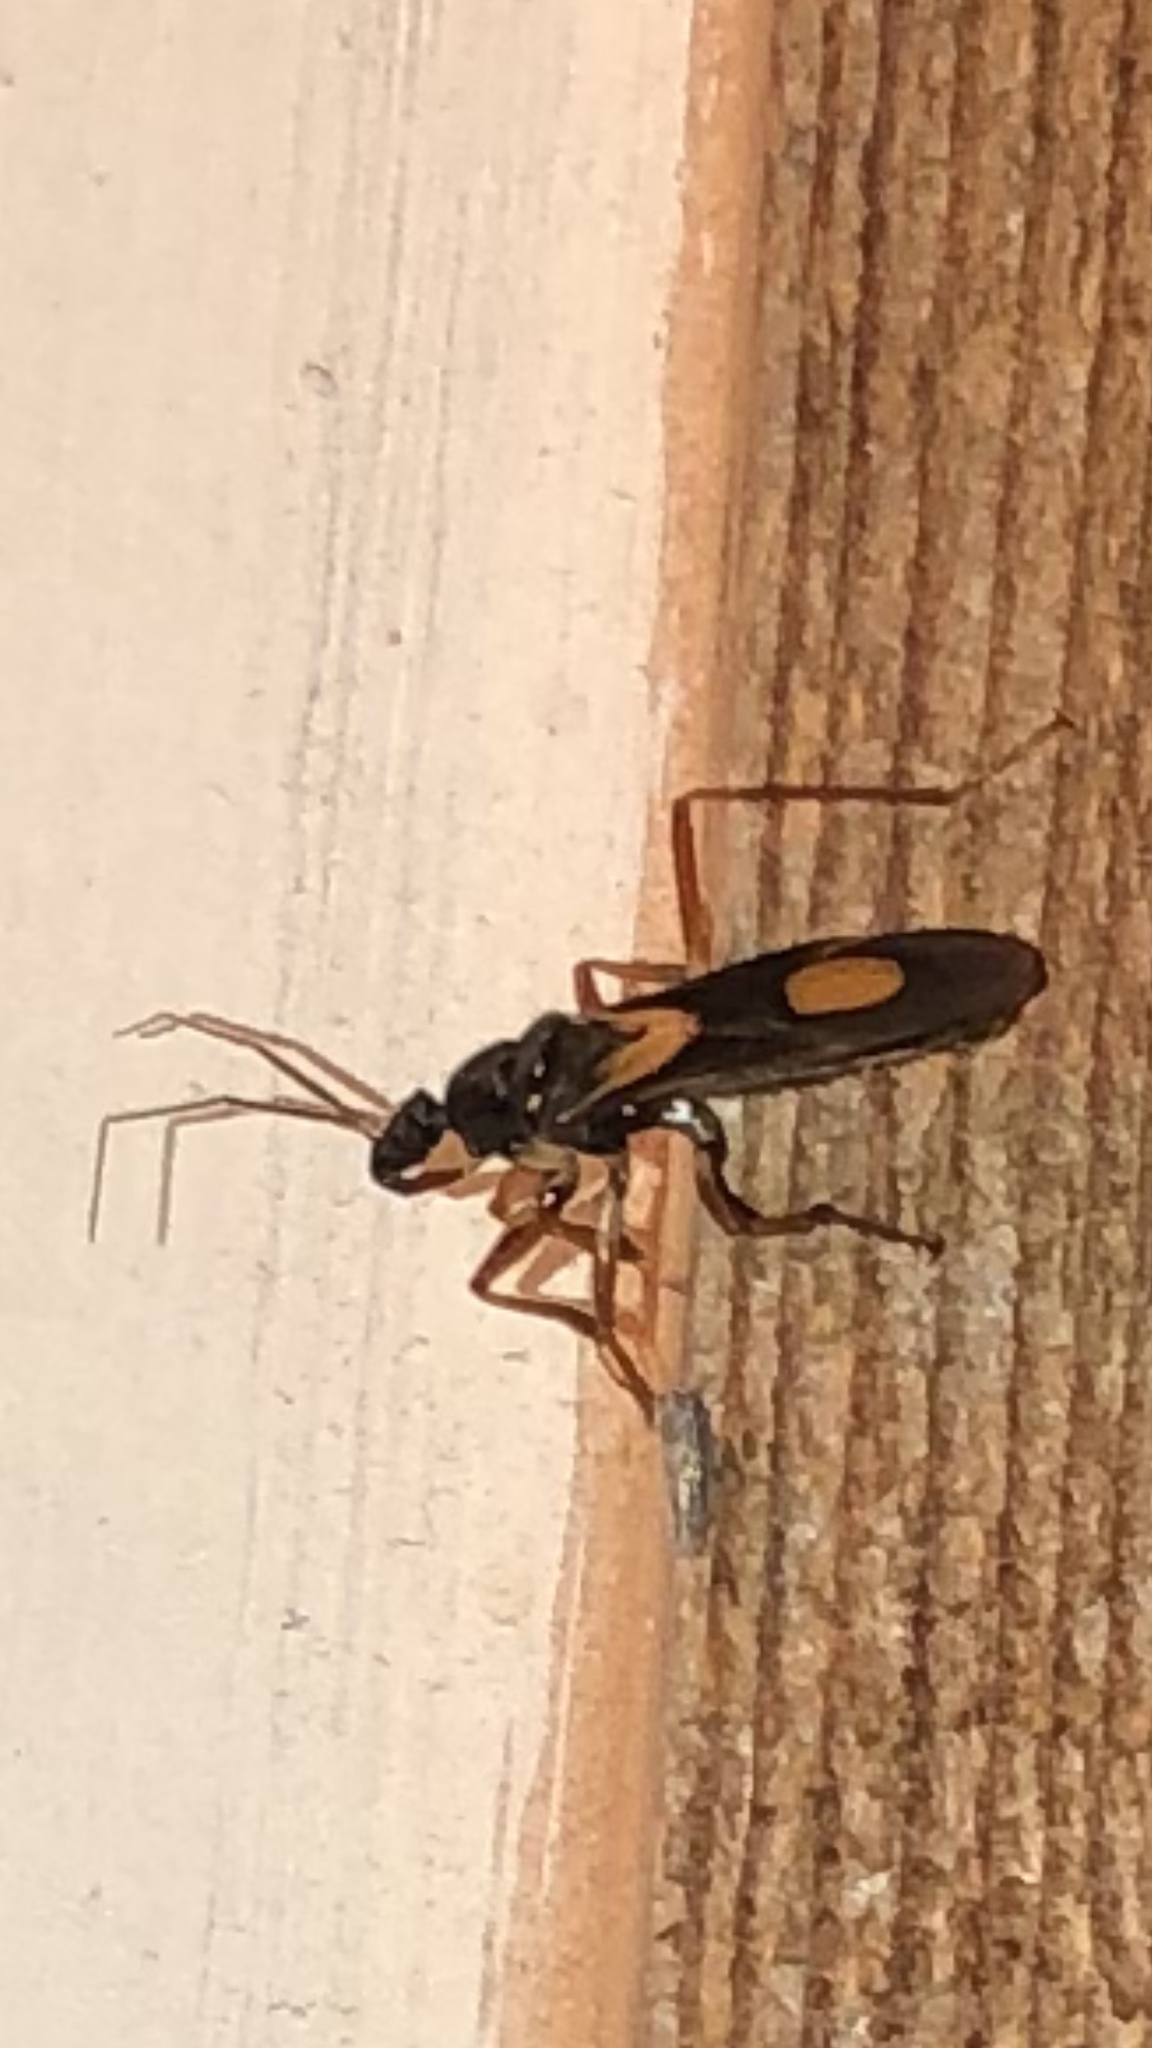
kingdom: Animalia
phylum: Arthropoda
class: Insecta
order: Hemiptera
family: Reduviidae
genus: Rasahus
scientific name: Rasahus hamatus
